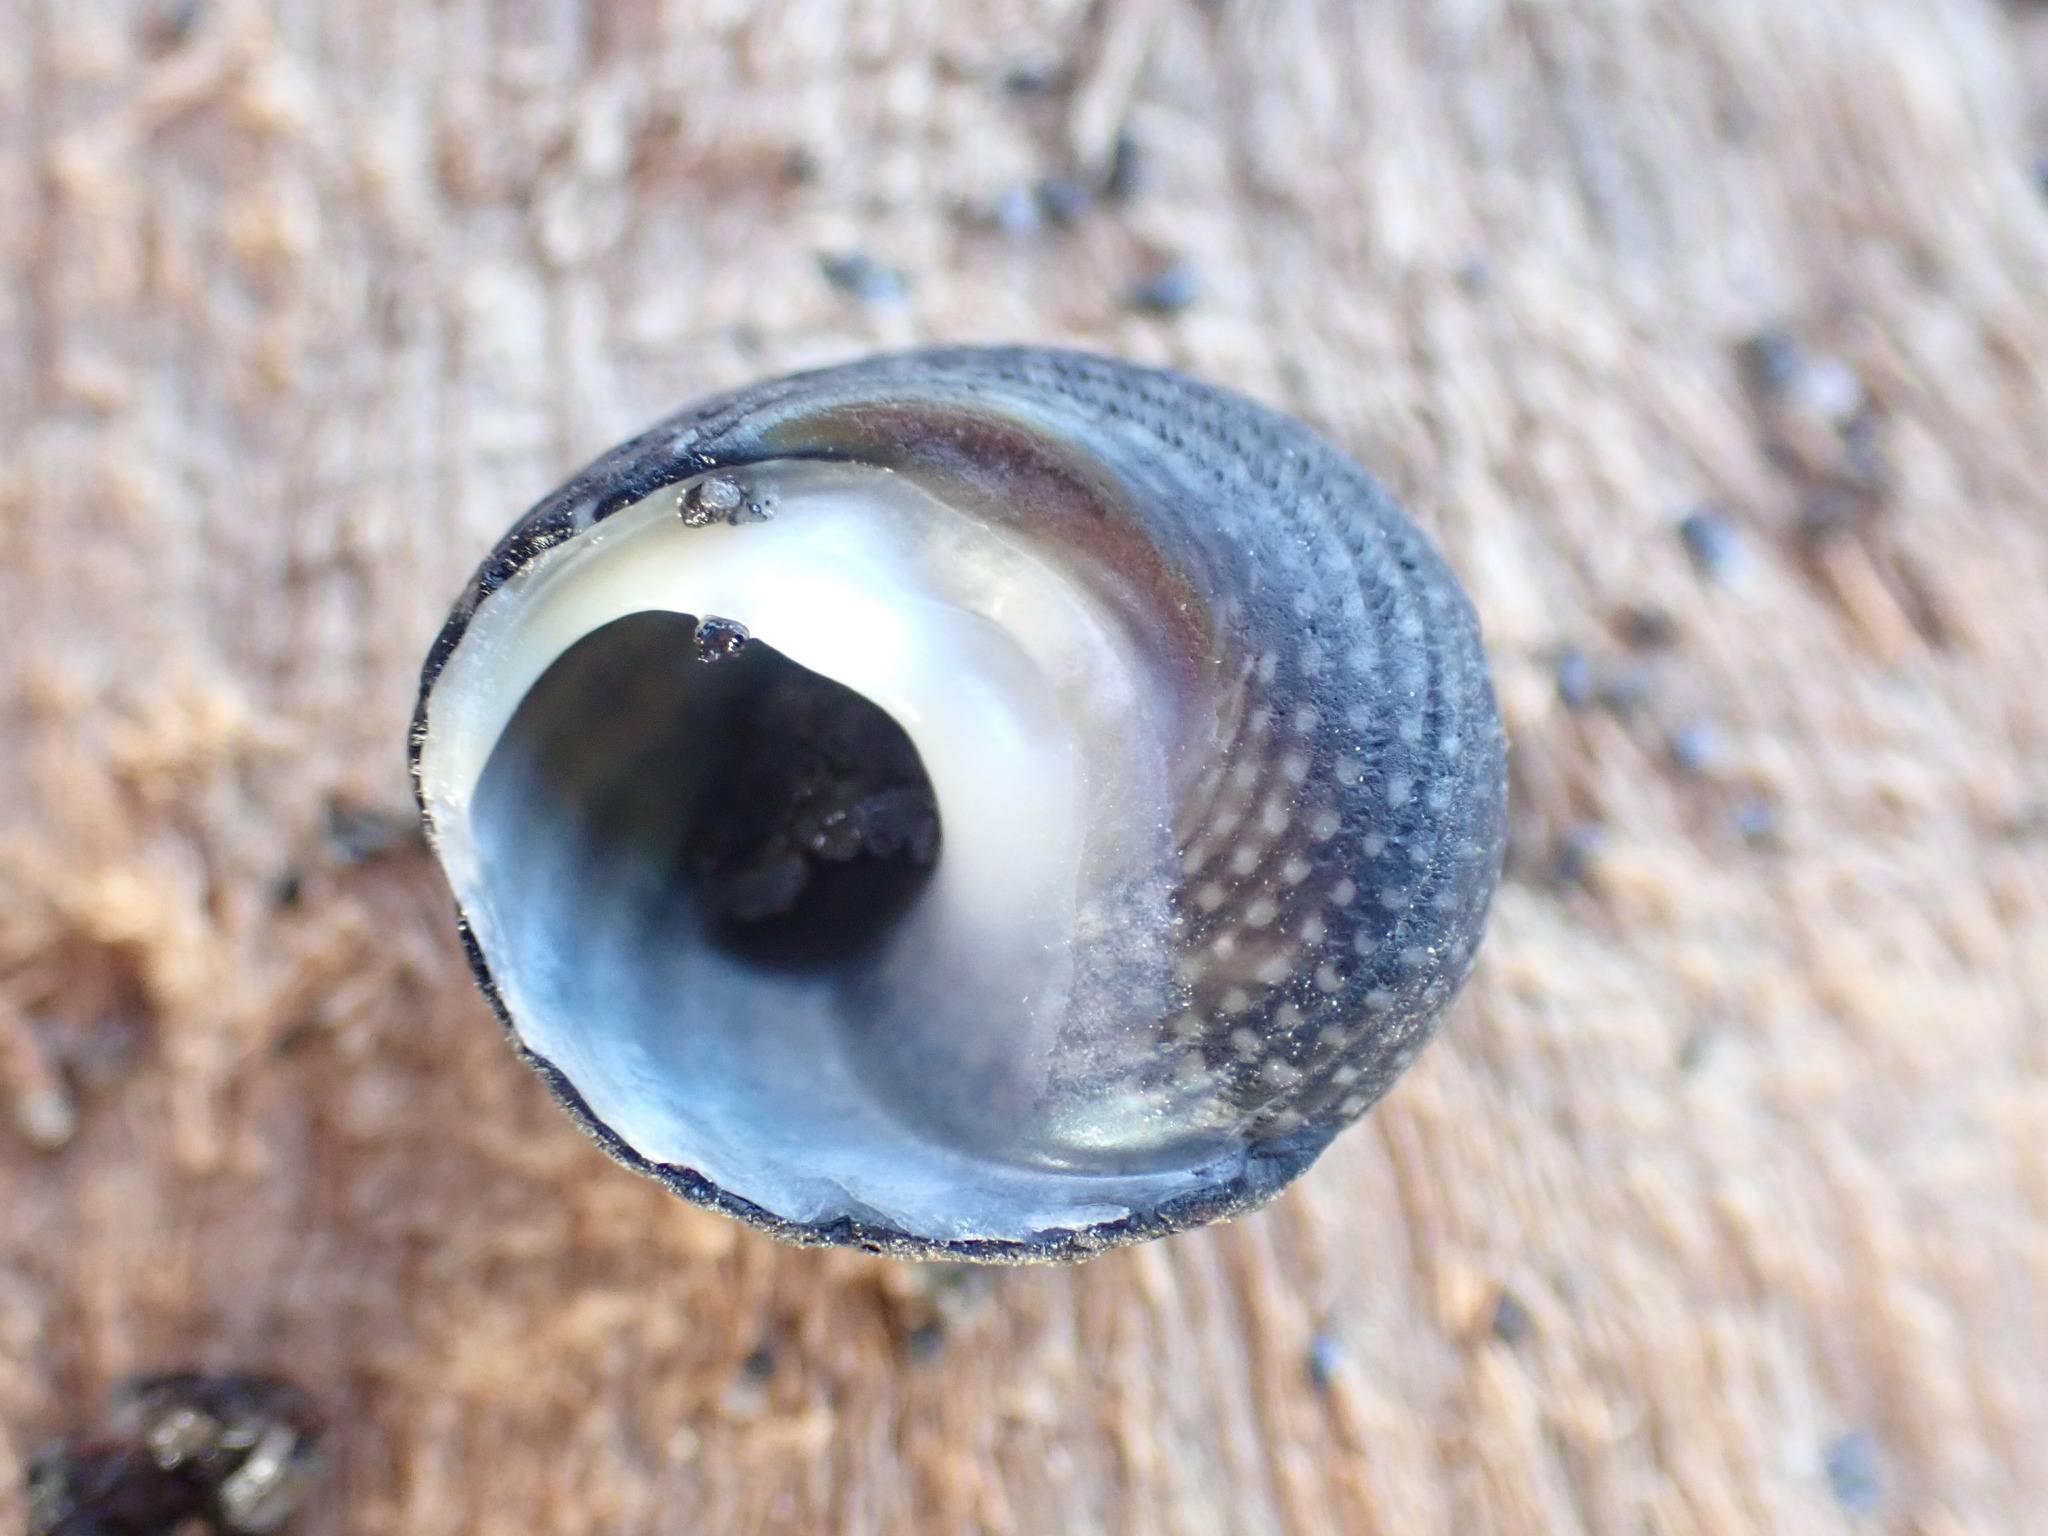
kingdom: Animalia
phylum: Mollusca
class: Gastropoda
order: Trochida
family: Trochidae
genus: Diloma
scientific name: Diloma aethiops
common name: Scorched monodont
